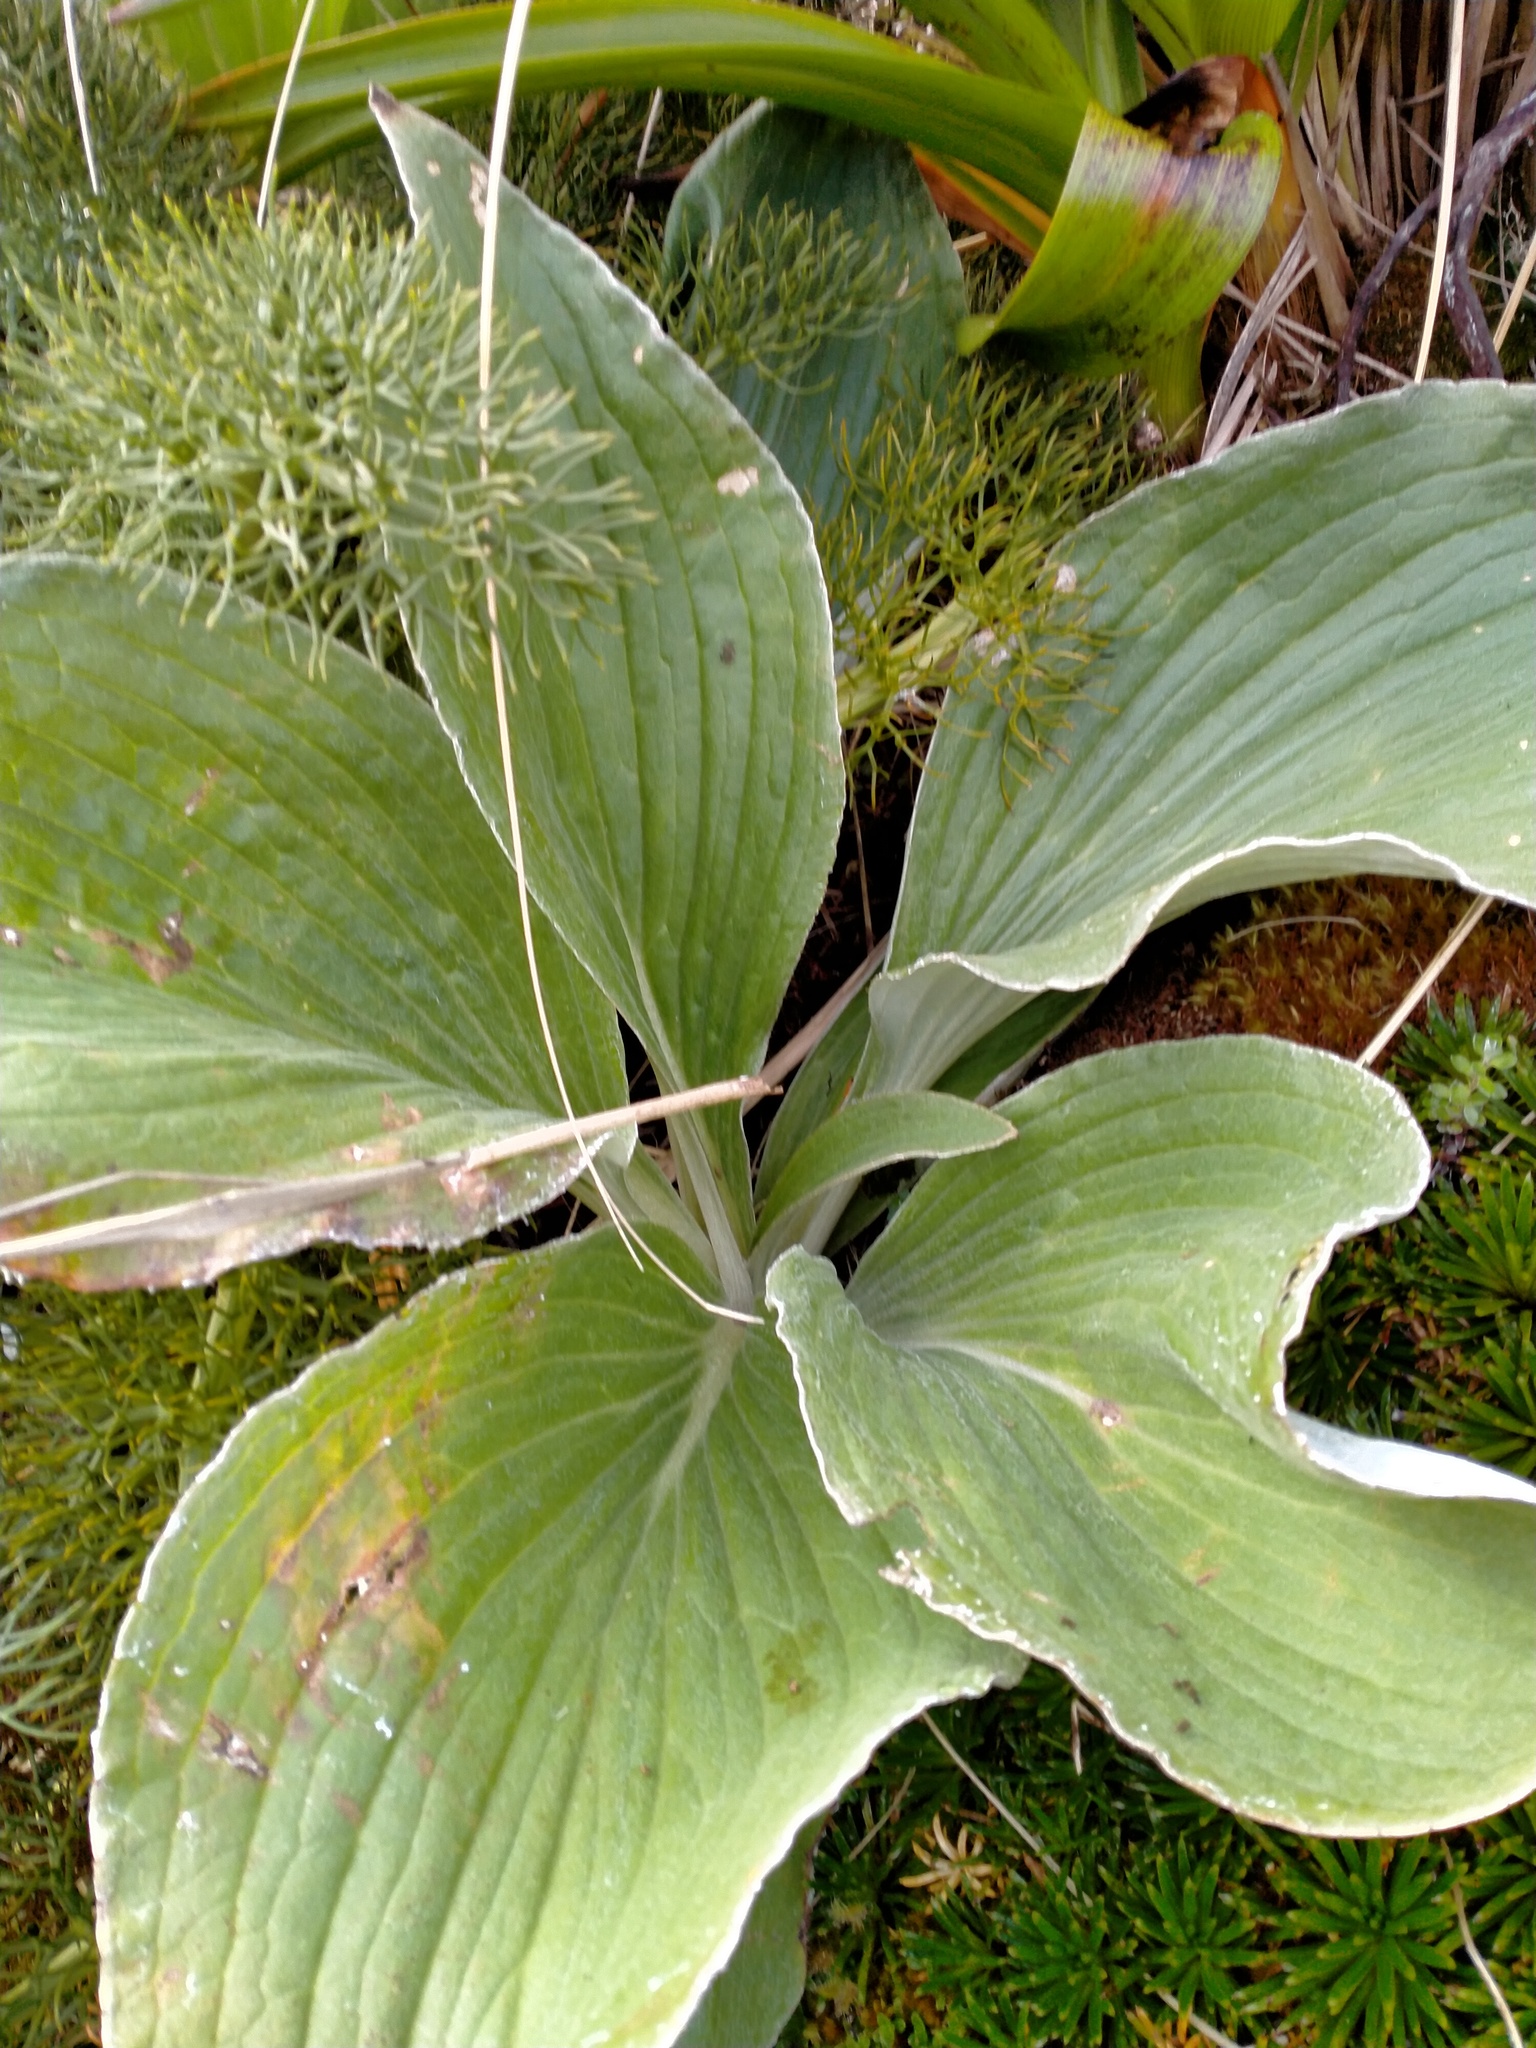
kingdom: Plantae
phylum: Tracheophyta
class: Magnoliopsida
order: Asterales
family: Asteraceae
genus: Pleurophyllum
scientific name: Pleurophyllum criniferum
